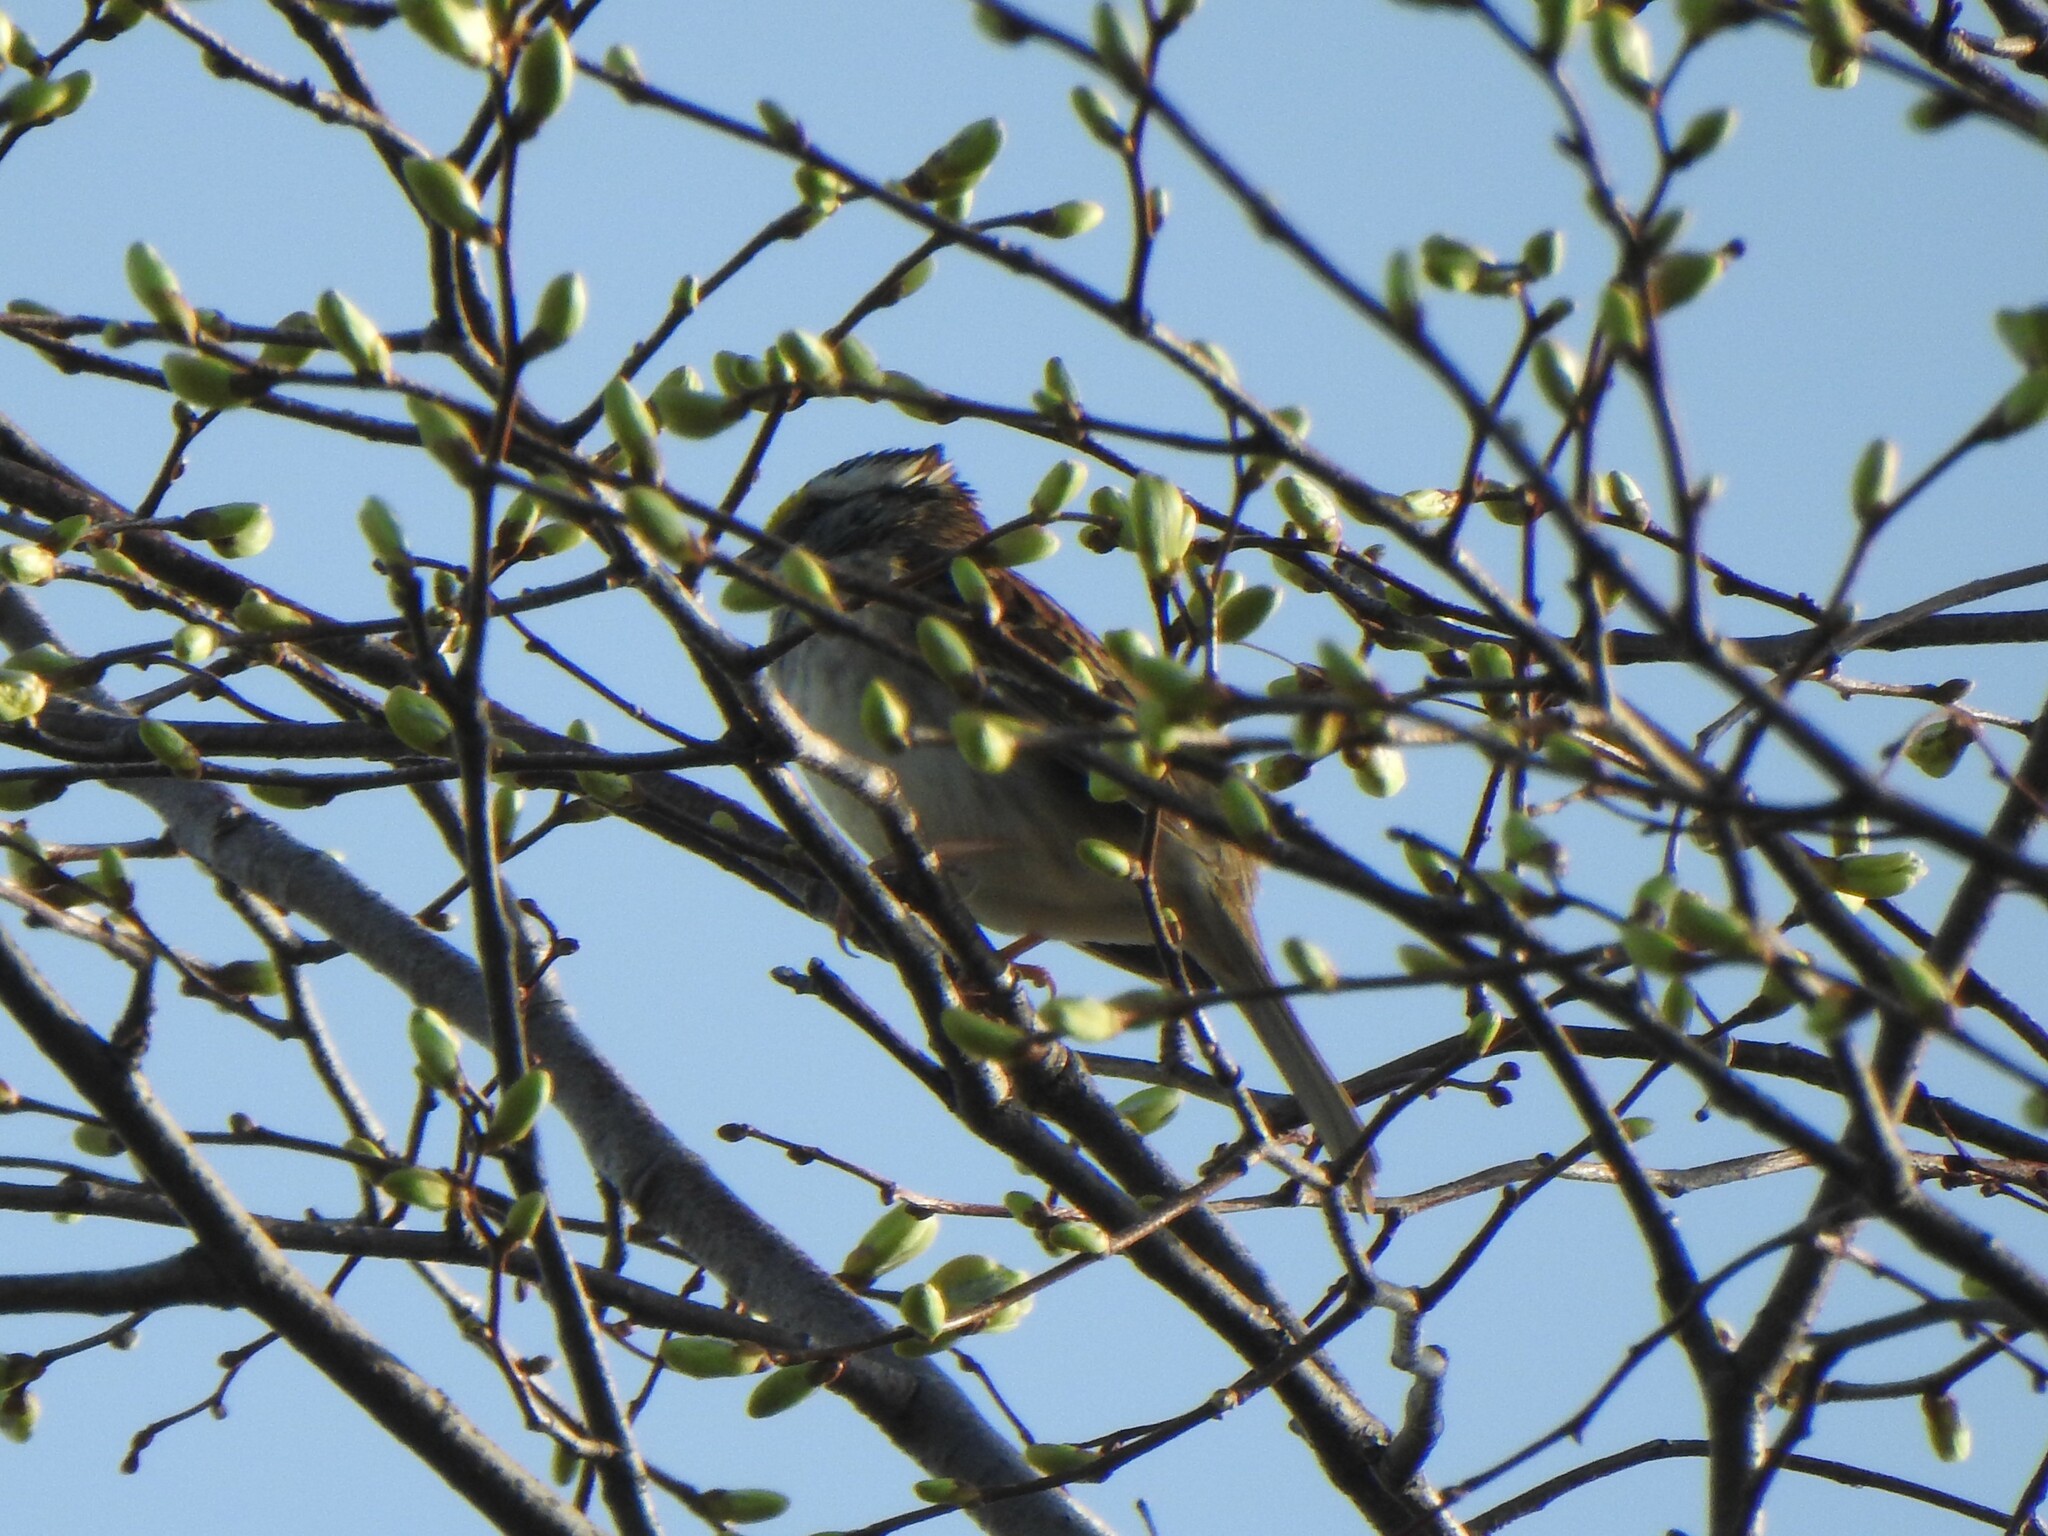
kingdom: Animalia
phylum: Chordata
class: Aves
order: Passeriformes
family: Passerellidae
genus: Zonotrichia
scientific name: Zonotrichia albicollis
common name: White-throated sparrow
